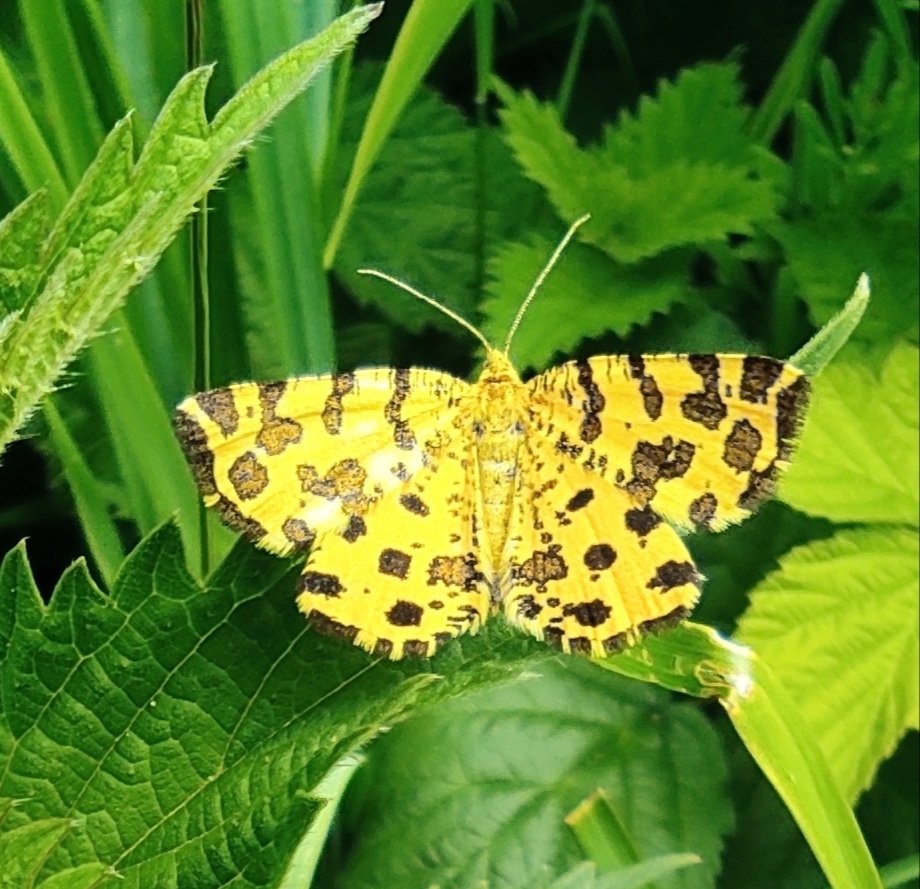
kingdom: Animalia
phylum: Arthropoda
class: Insecta
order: Lepidoptera
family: Geometridae
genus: Pseudopanthera
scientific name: Pseudopanthera macularia
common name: Speckled yellow
